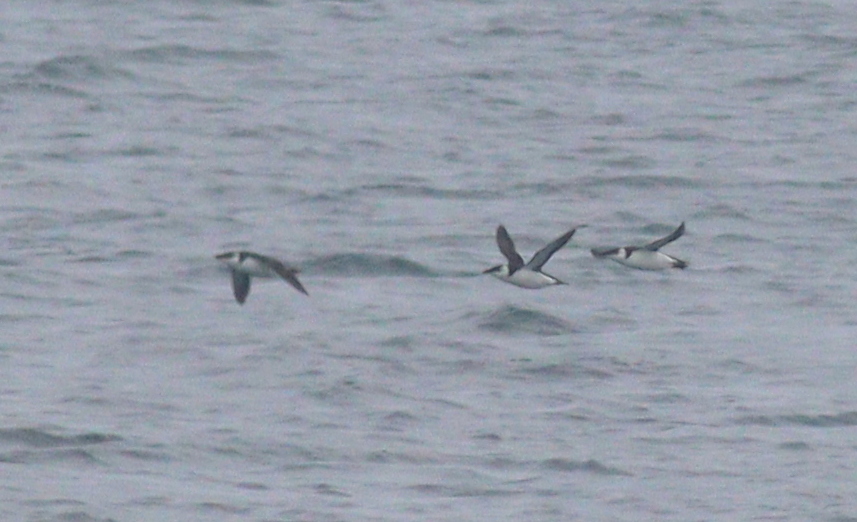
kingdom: Animalia
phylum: Chordata
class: Aves
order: Charadriiformes
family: Alcidae
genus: Alca
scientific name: Alca torda
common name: Razorbill
